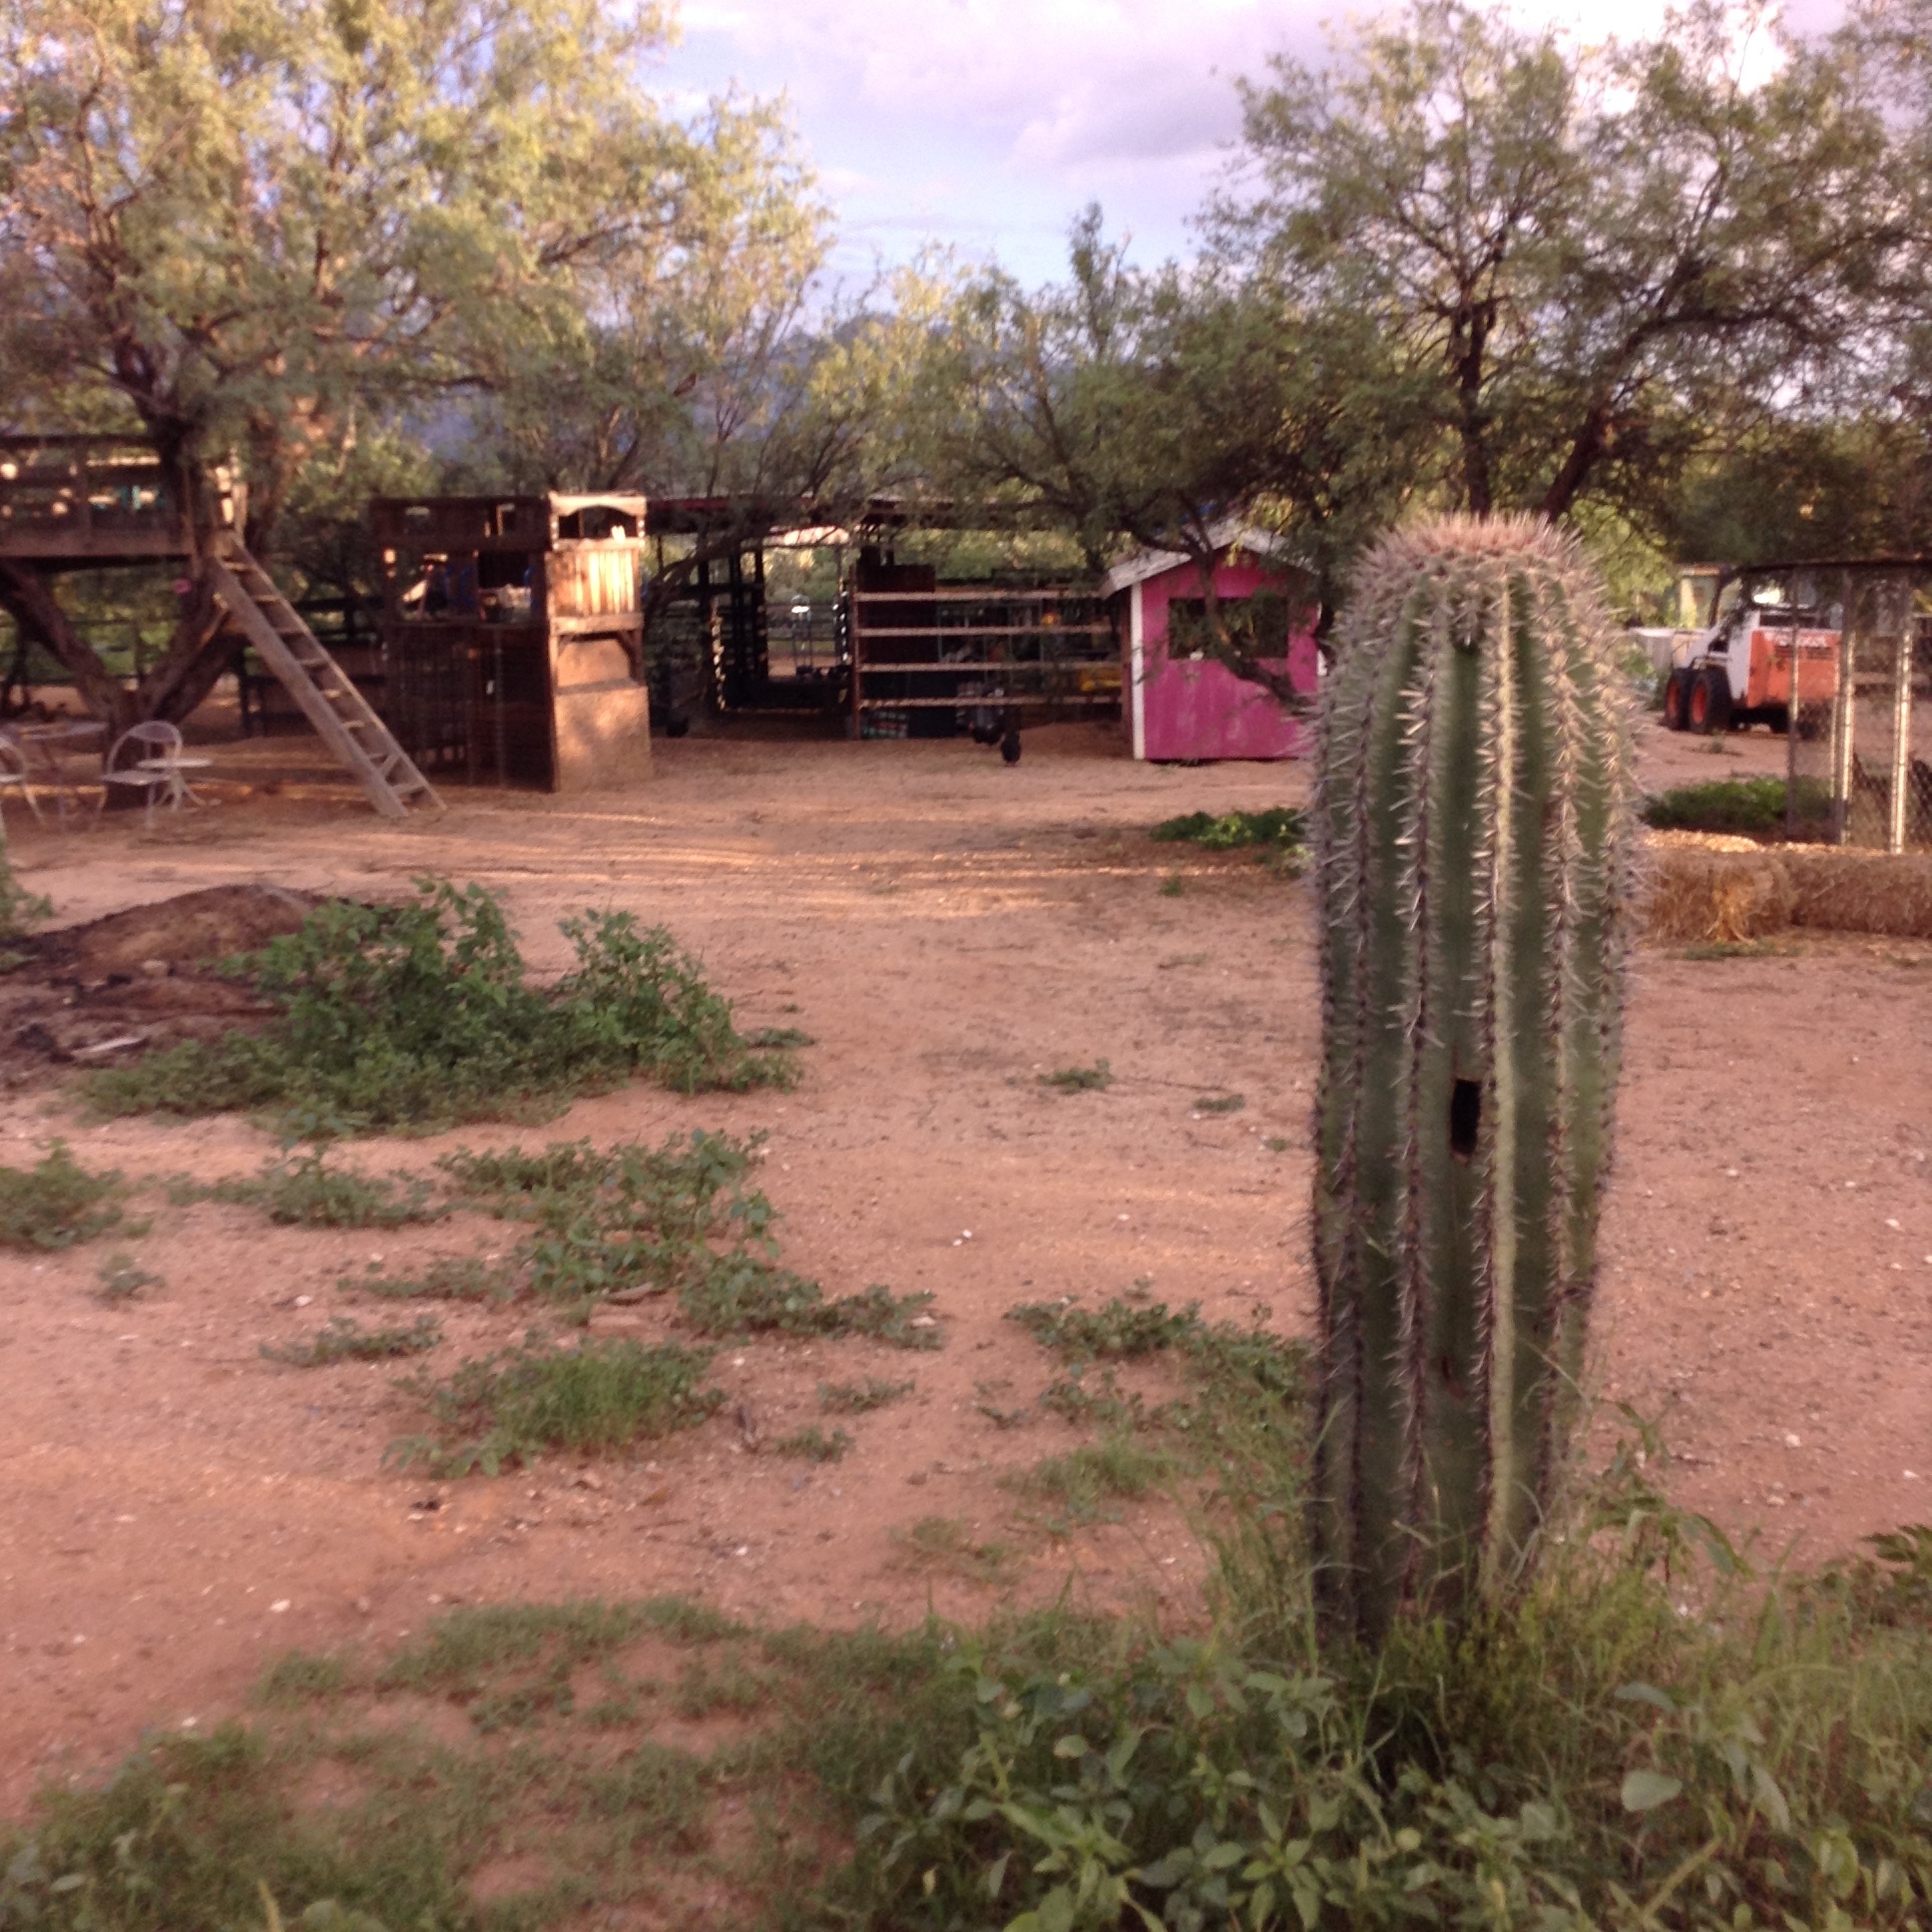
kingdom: Plantae
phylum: Tracheophyta
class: Magnoliopsida
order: Caryophyllales
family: Cactaceae
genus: Carnegiea
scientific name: Carnegiea gigantea
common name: Saguaro
